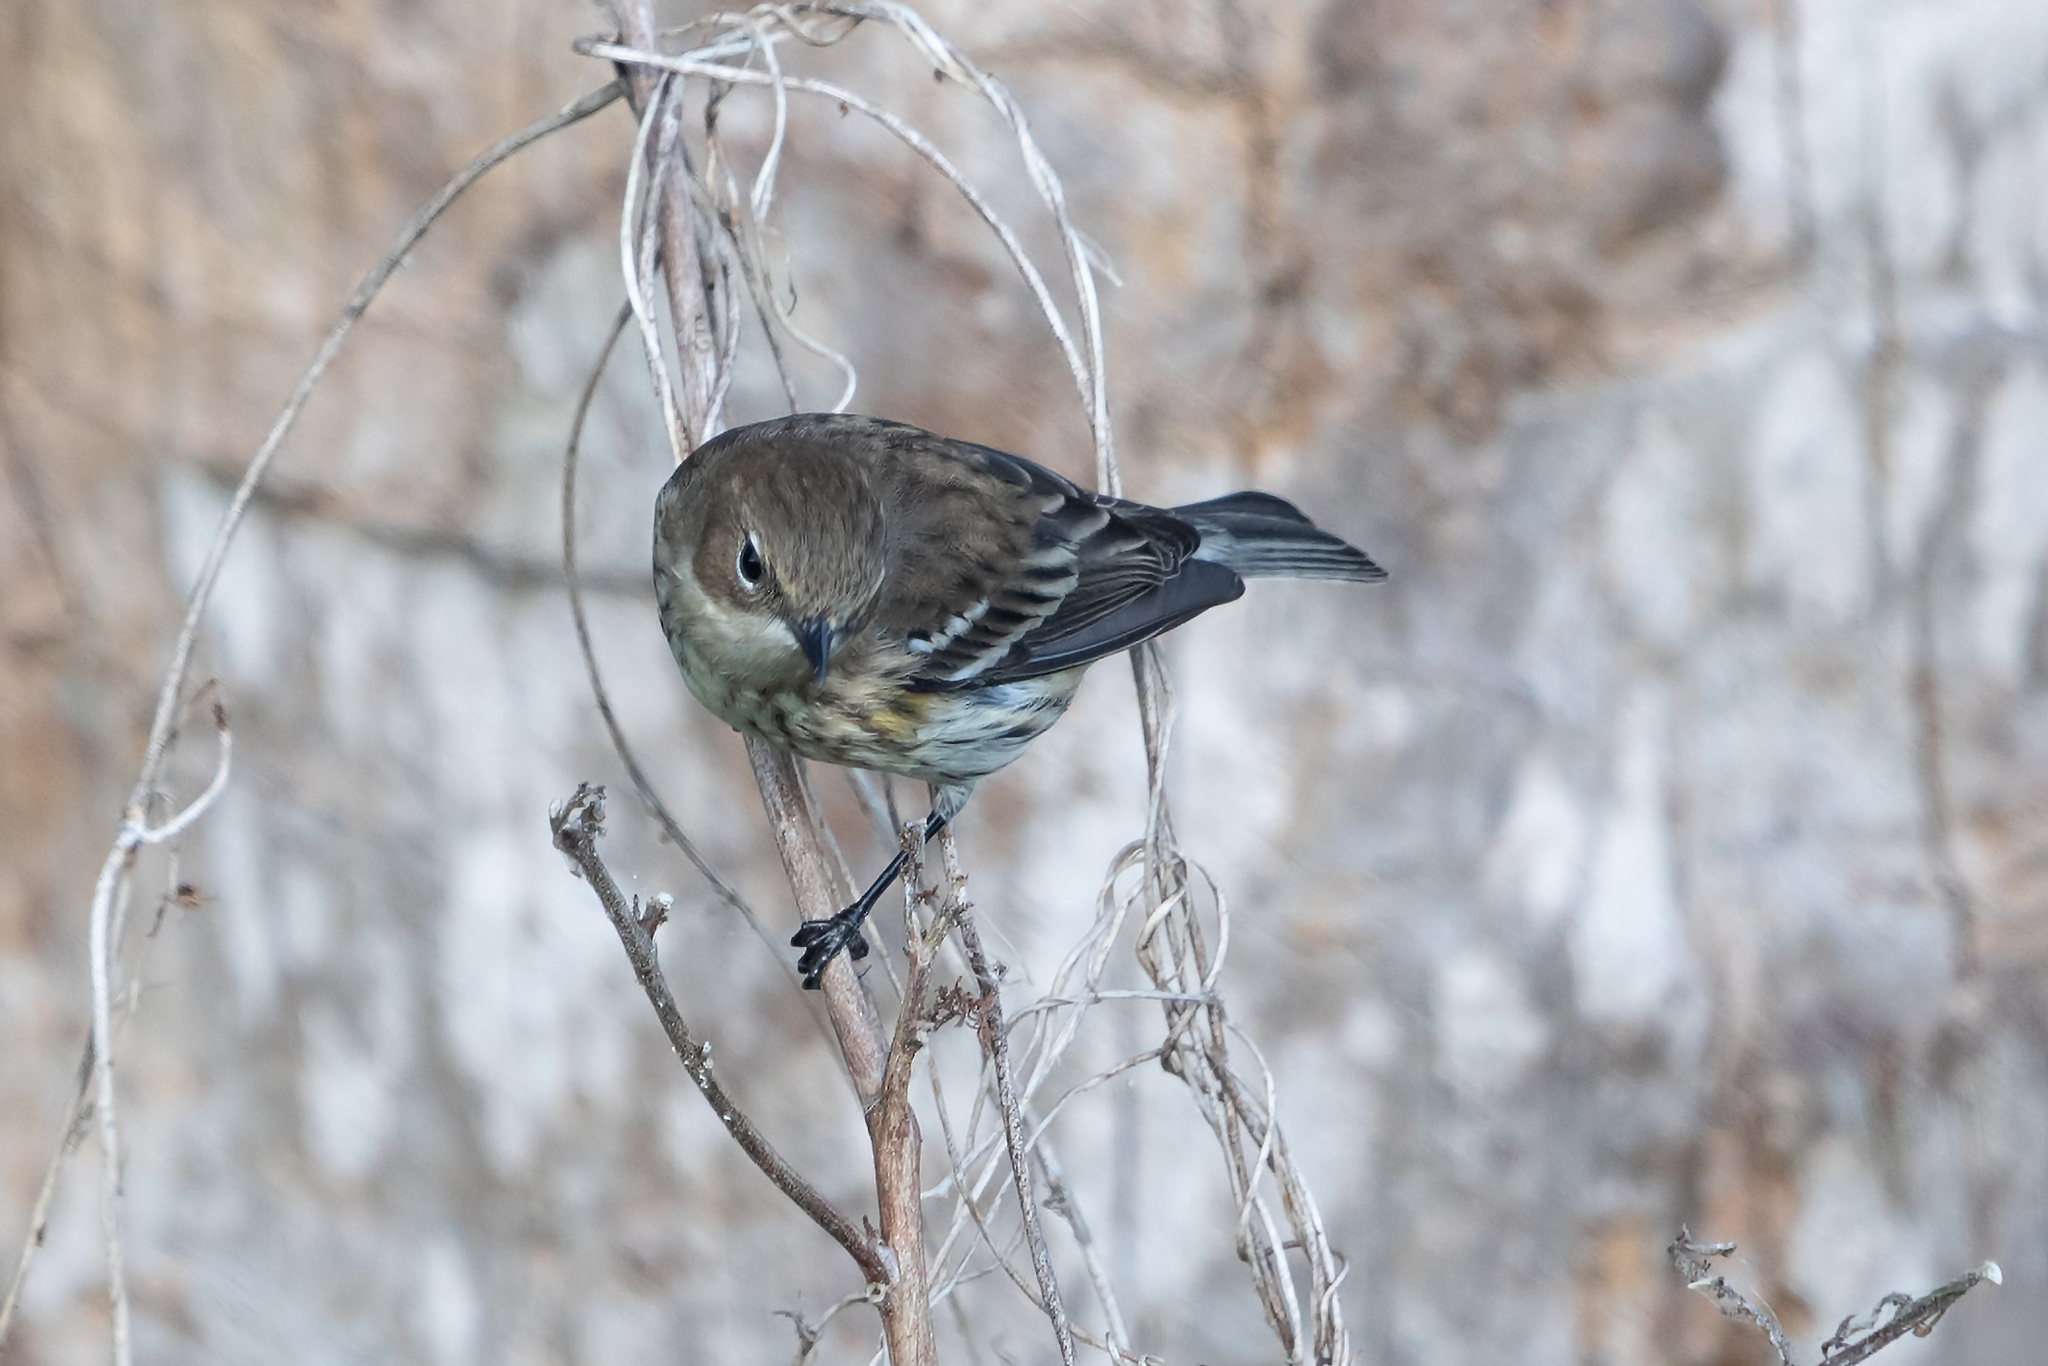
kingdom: Animalia
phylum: Chordata
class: Aves
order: Passeriformes
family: Parulidae
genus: Setophaga
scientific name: Setophaga coronata
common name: Myrtle warbler
